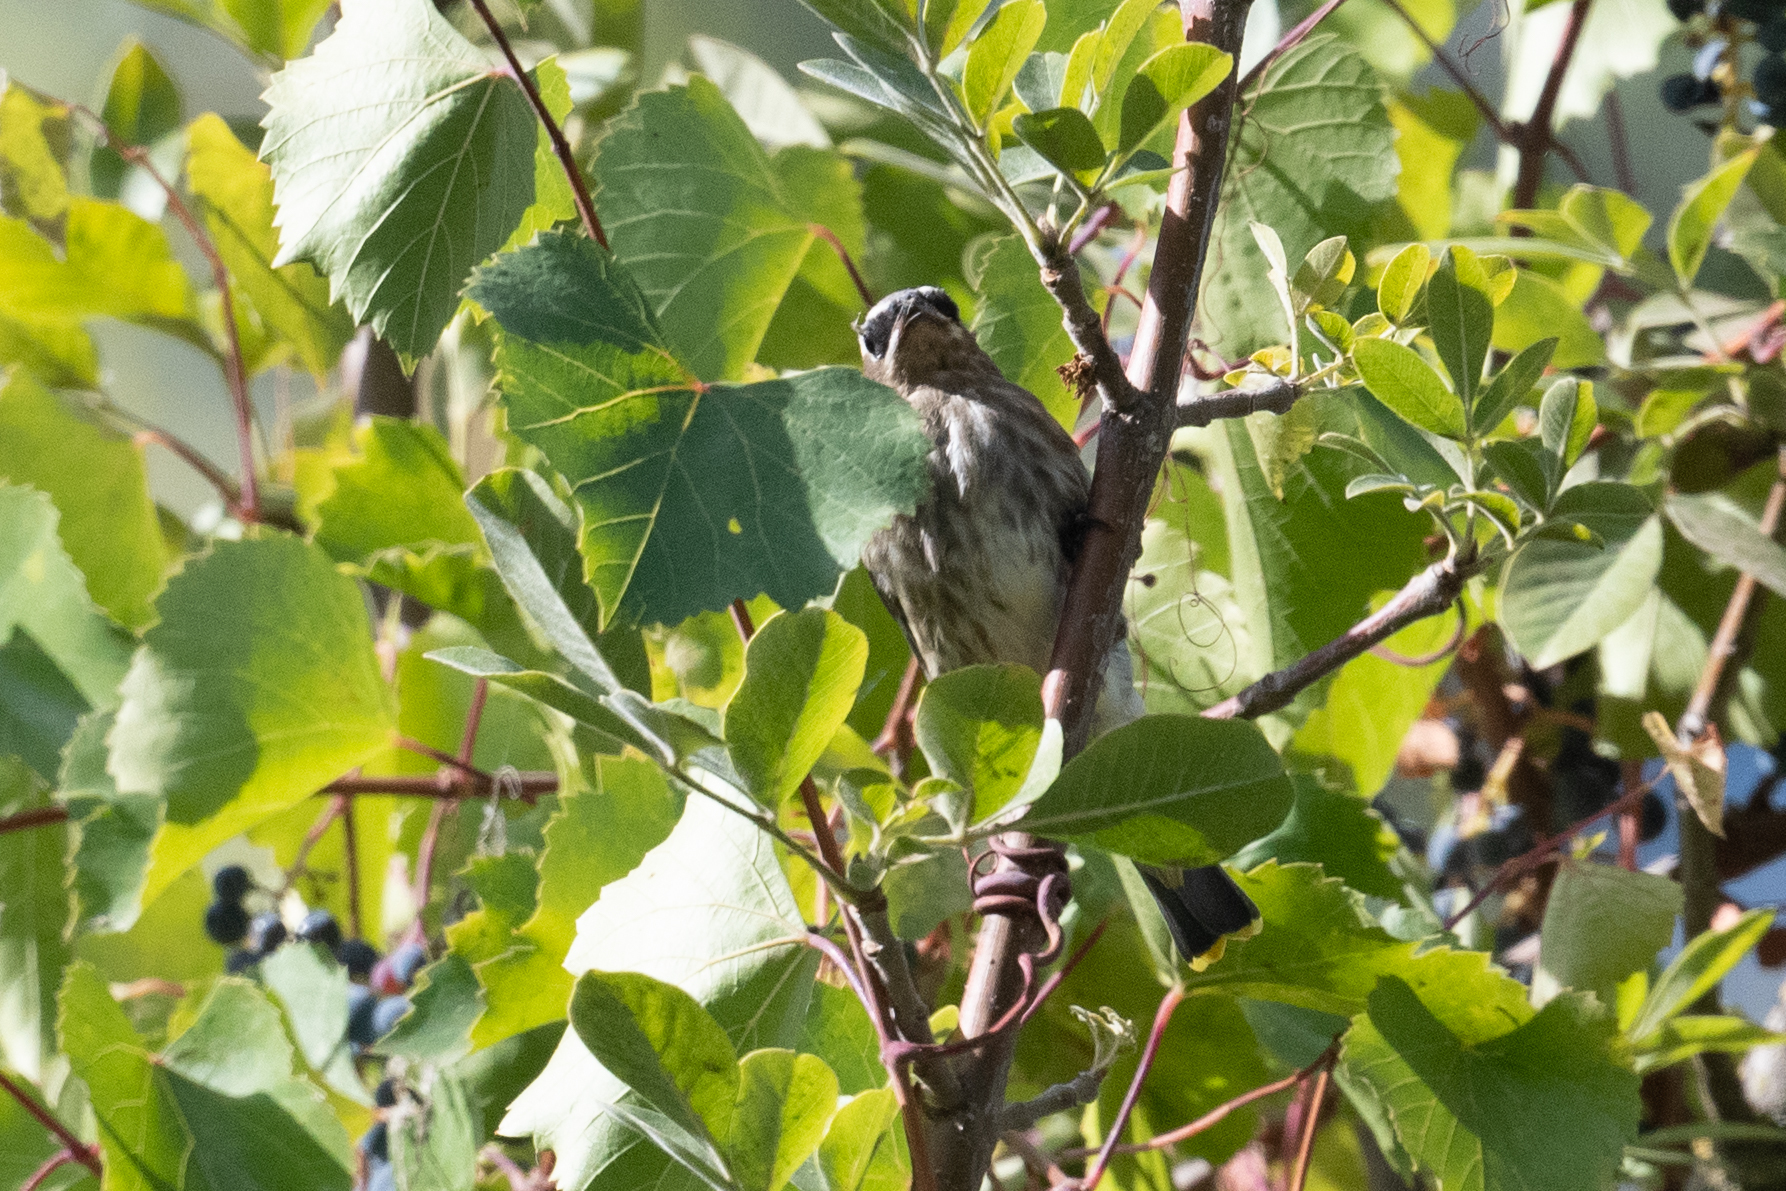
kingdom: Animalia
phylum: Chordata
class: Aves
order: Passeriformes
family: Bombycillidae
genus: Bombycilla
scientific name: Bombycilla cedrorum
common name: Cedar waxwing
